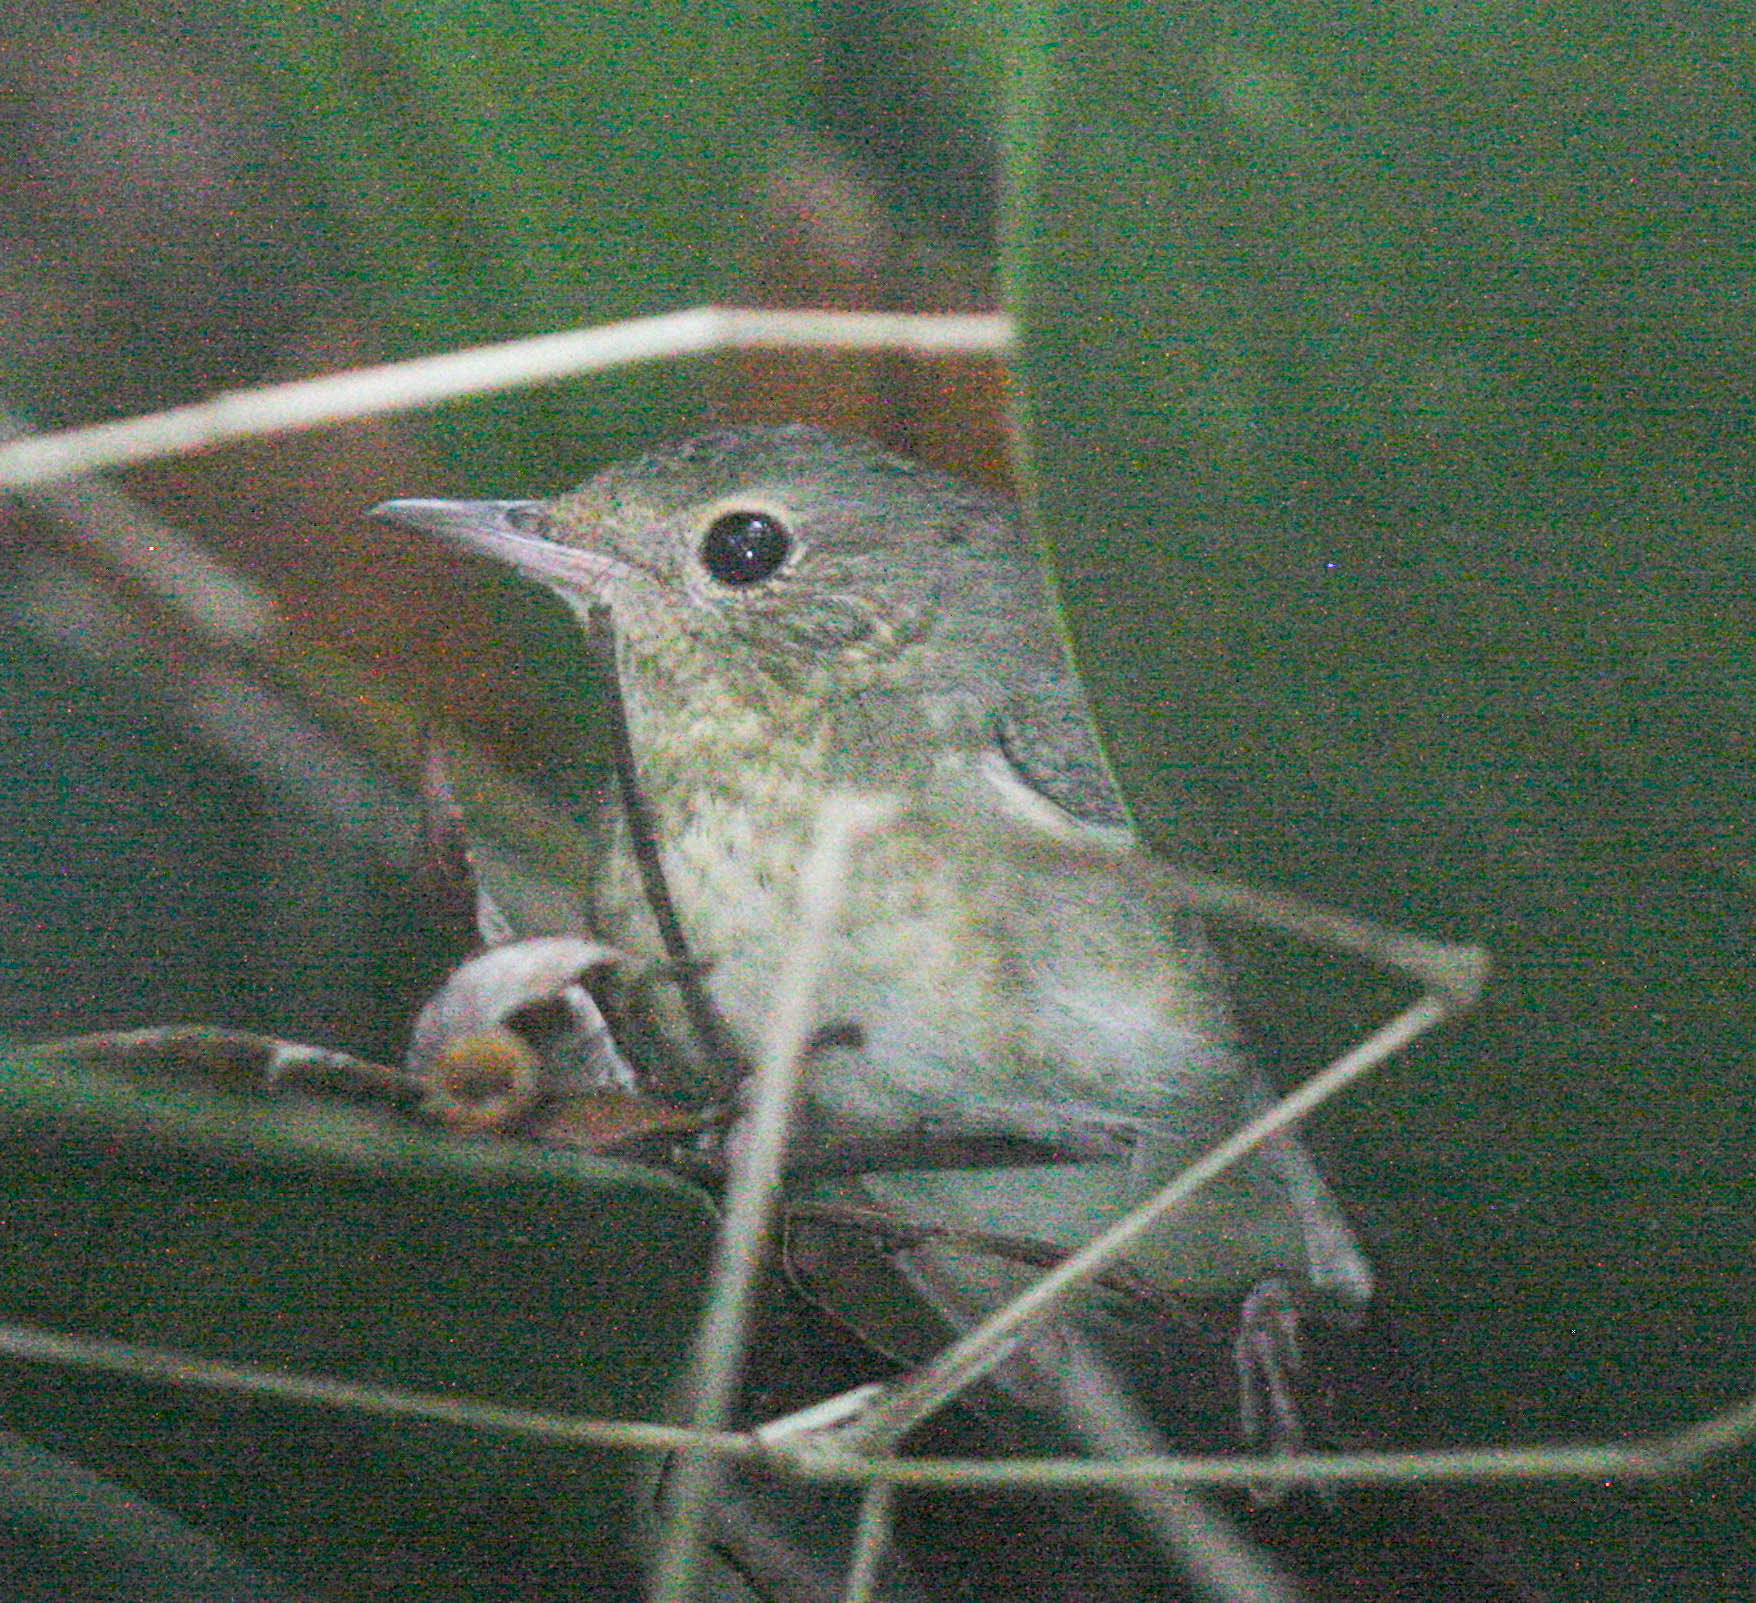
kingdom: Animalia
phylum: Chordata
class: Aves
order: Passeriformes
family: Muscicapidae
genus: Luscinia
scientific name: Luscinia cyane
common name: Siberian blue robin
